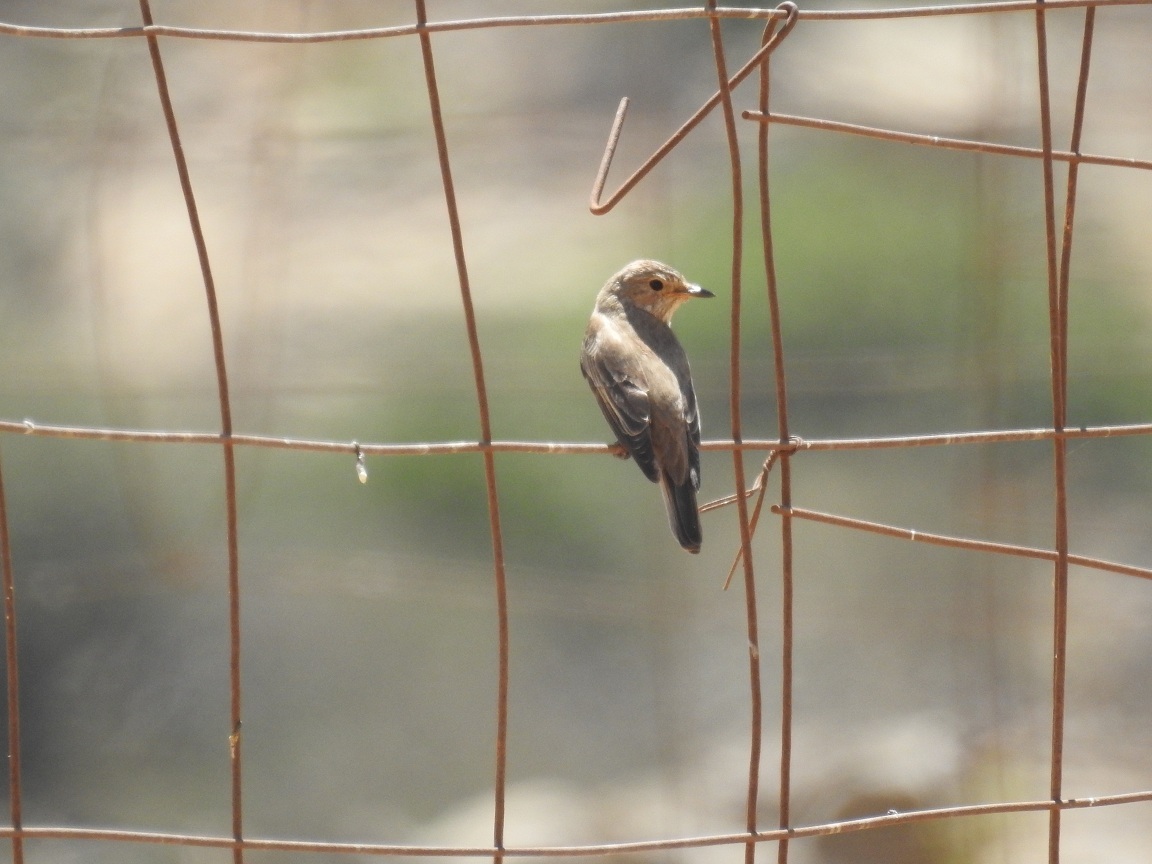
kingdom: Animalia
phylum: Chordata
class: Aves
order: Passeriformes
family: Muscicapidae
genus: Muscicapa
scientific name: Muscicapa striata
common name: Spotted flycatcher
